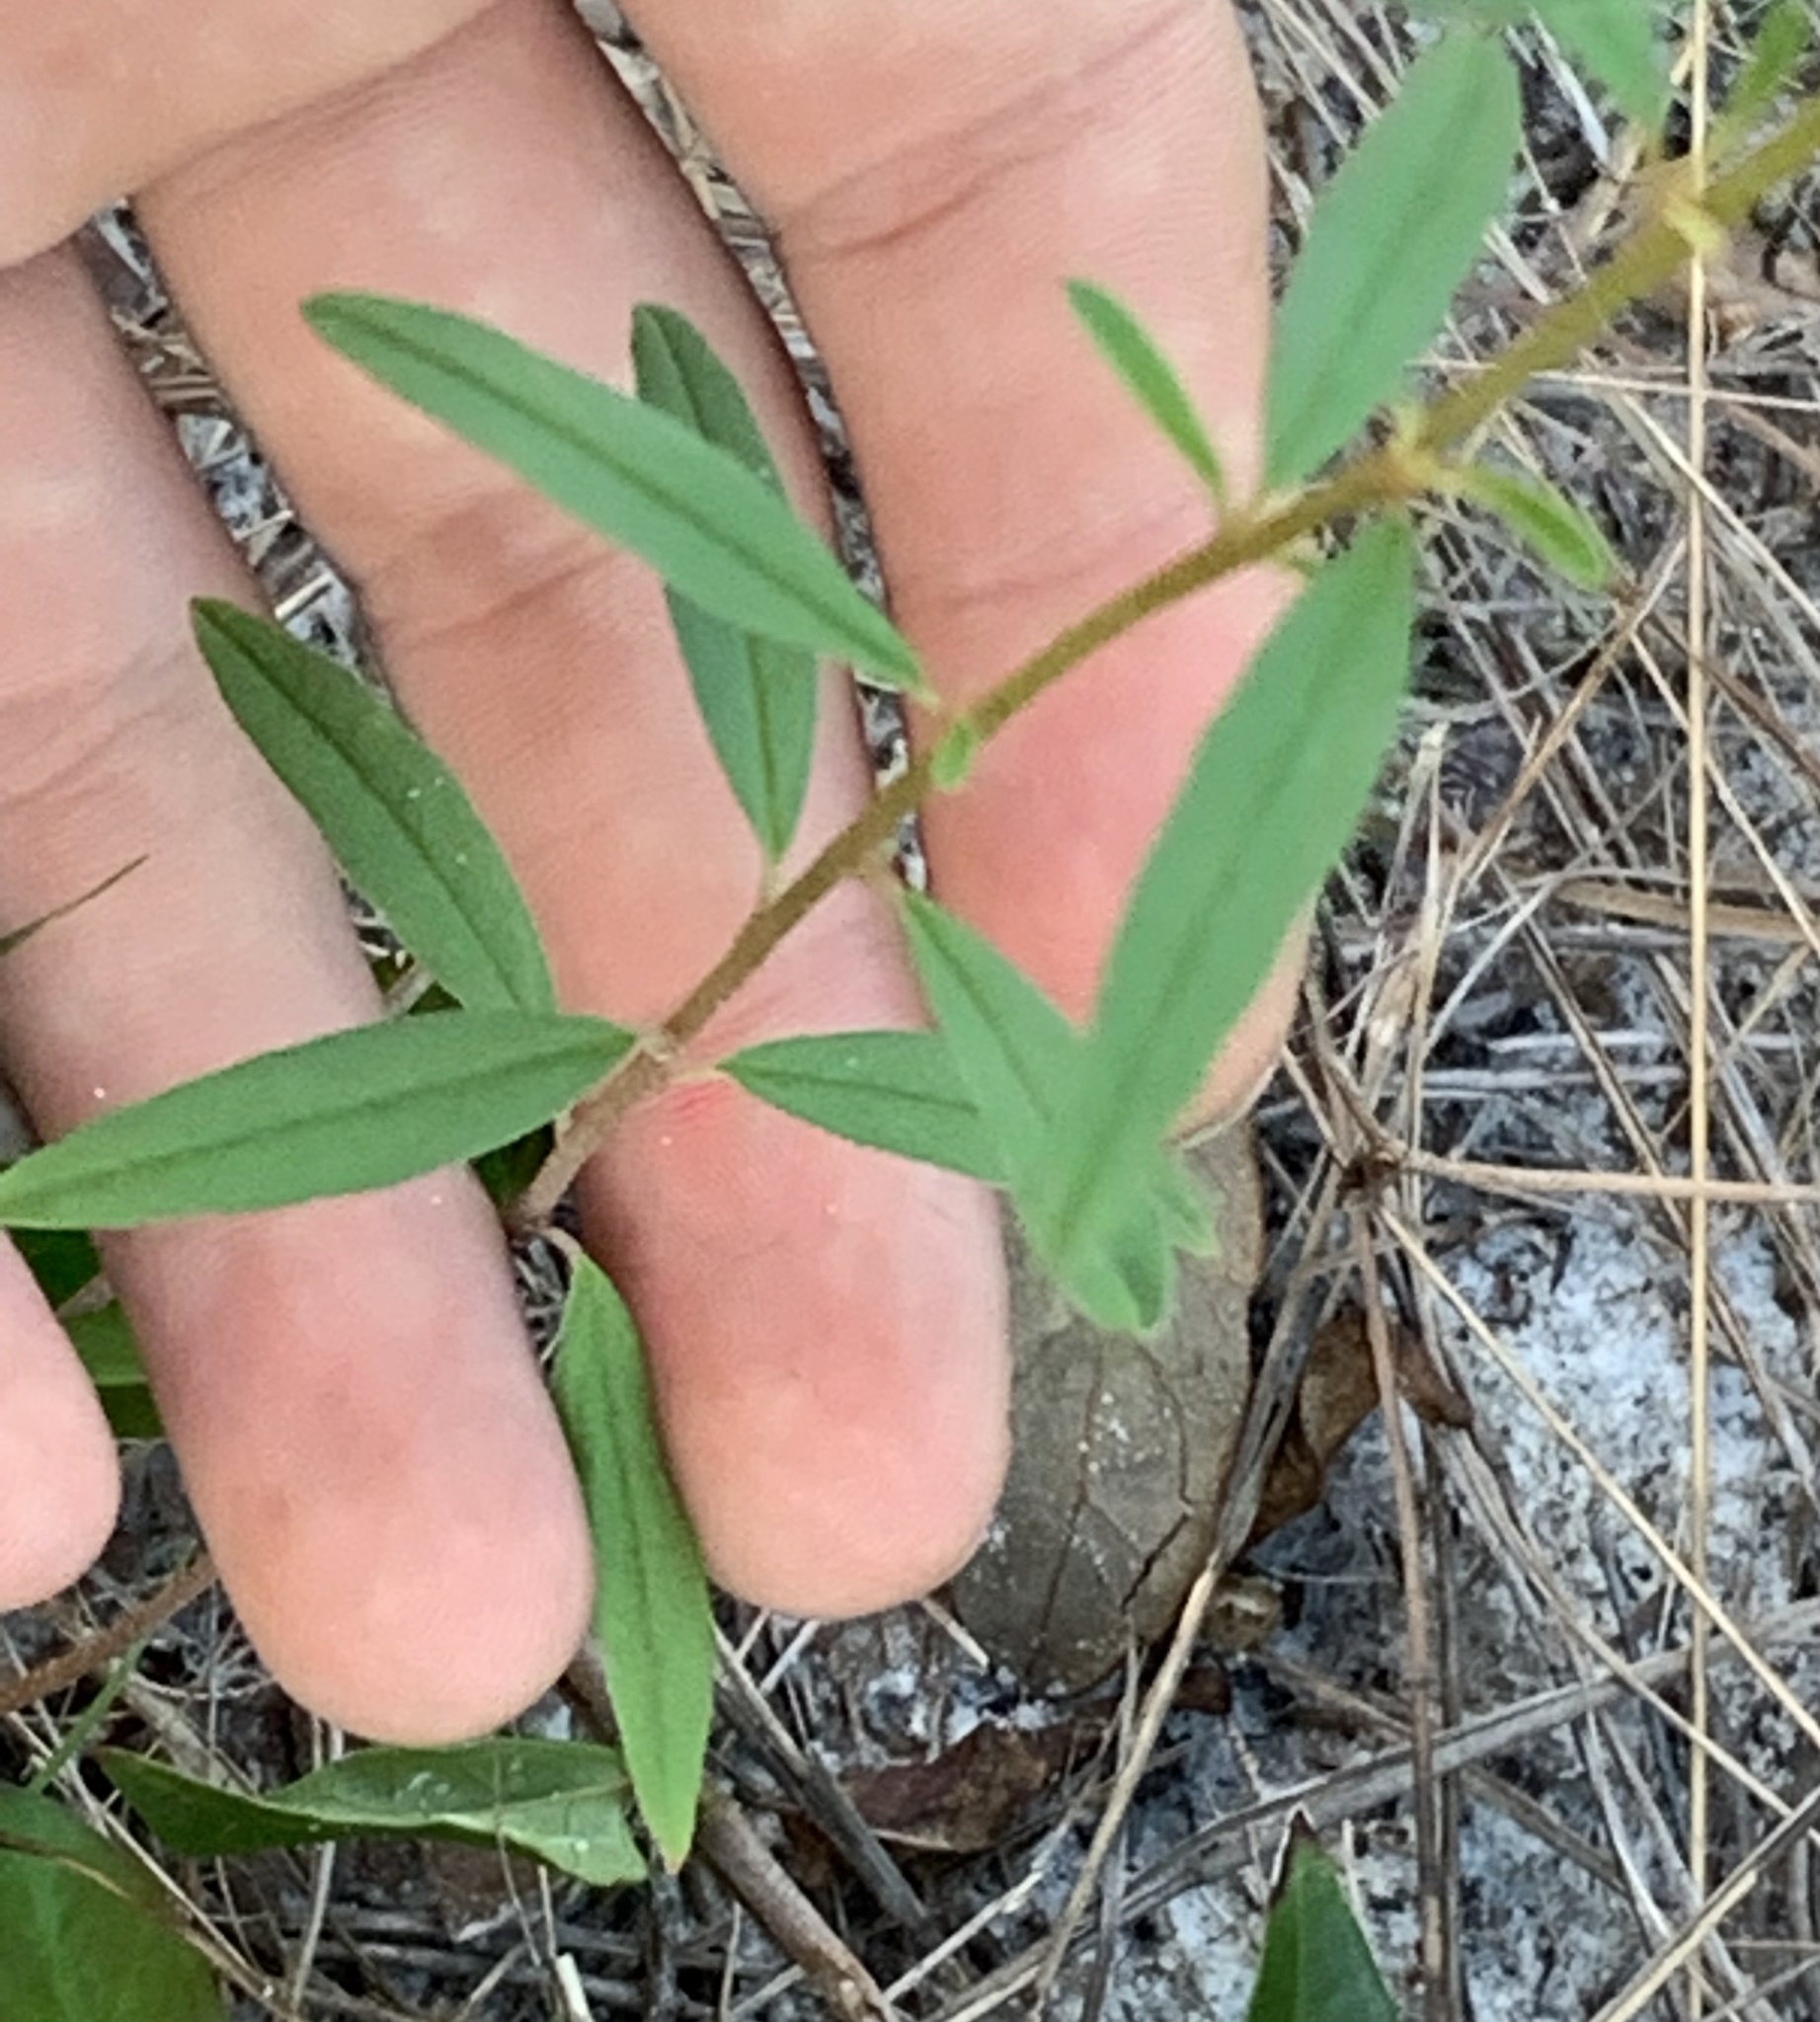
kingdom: Plantae
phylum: Tracheophyta
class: Magnoliopsida
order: Malpighiales
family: Euphorbiaceae
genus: Croton
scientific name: Croton michauxii
